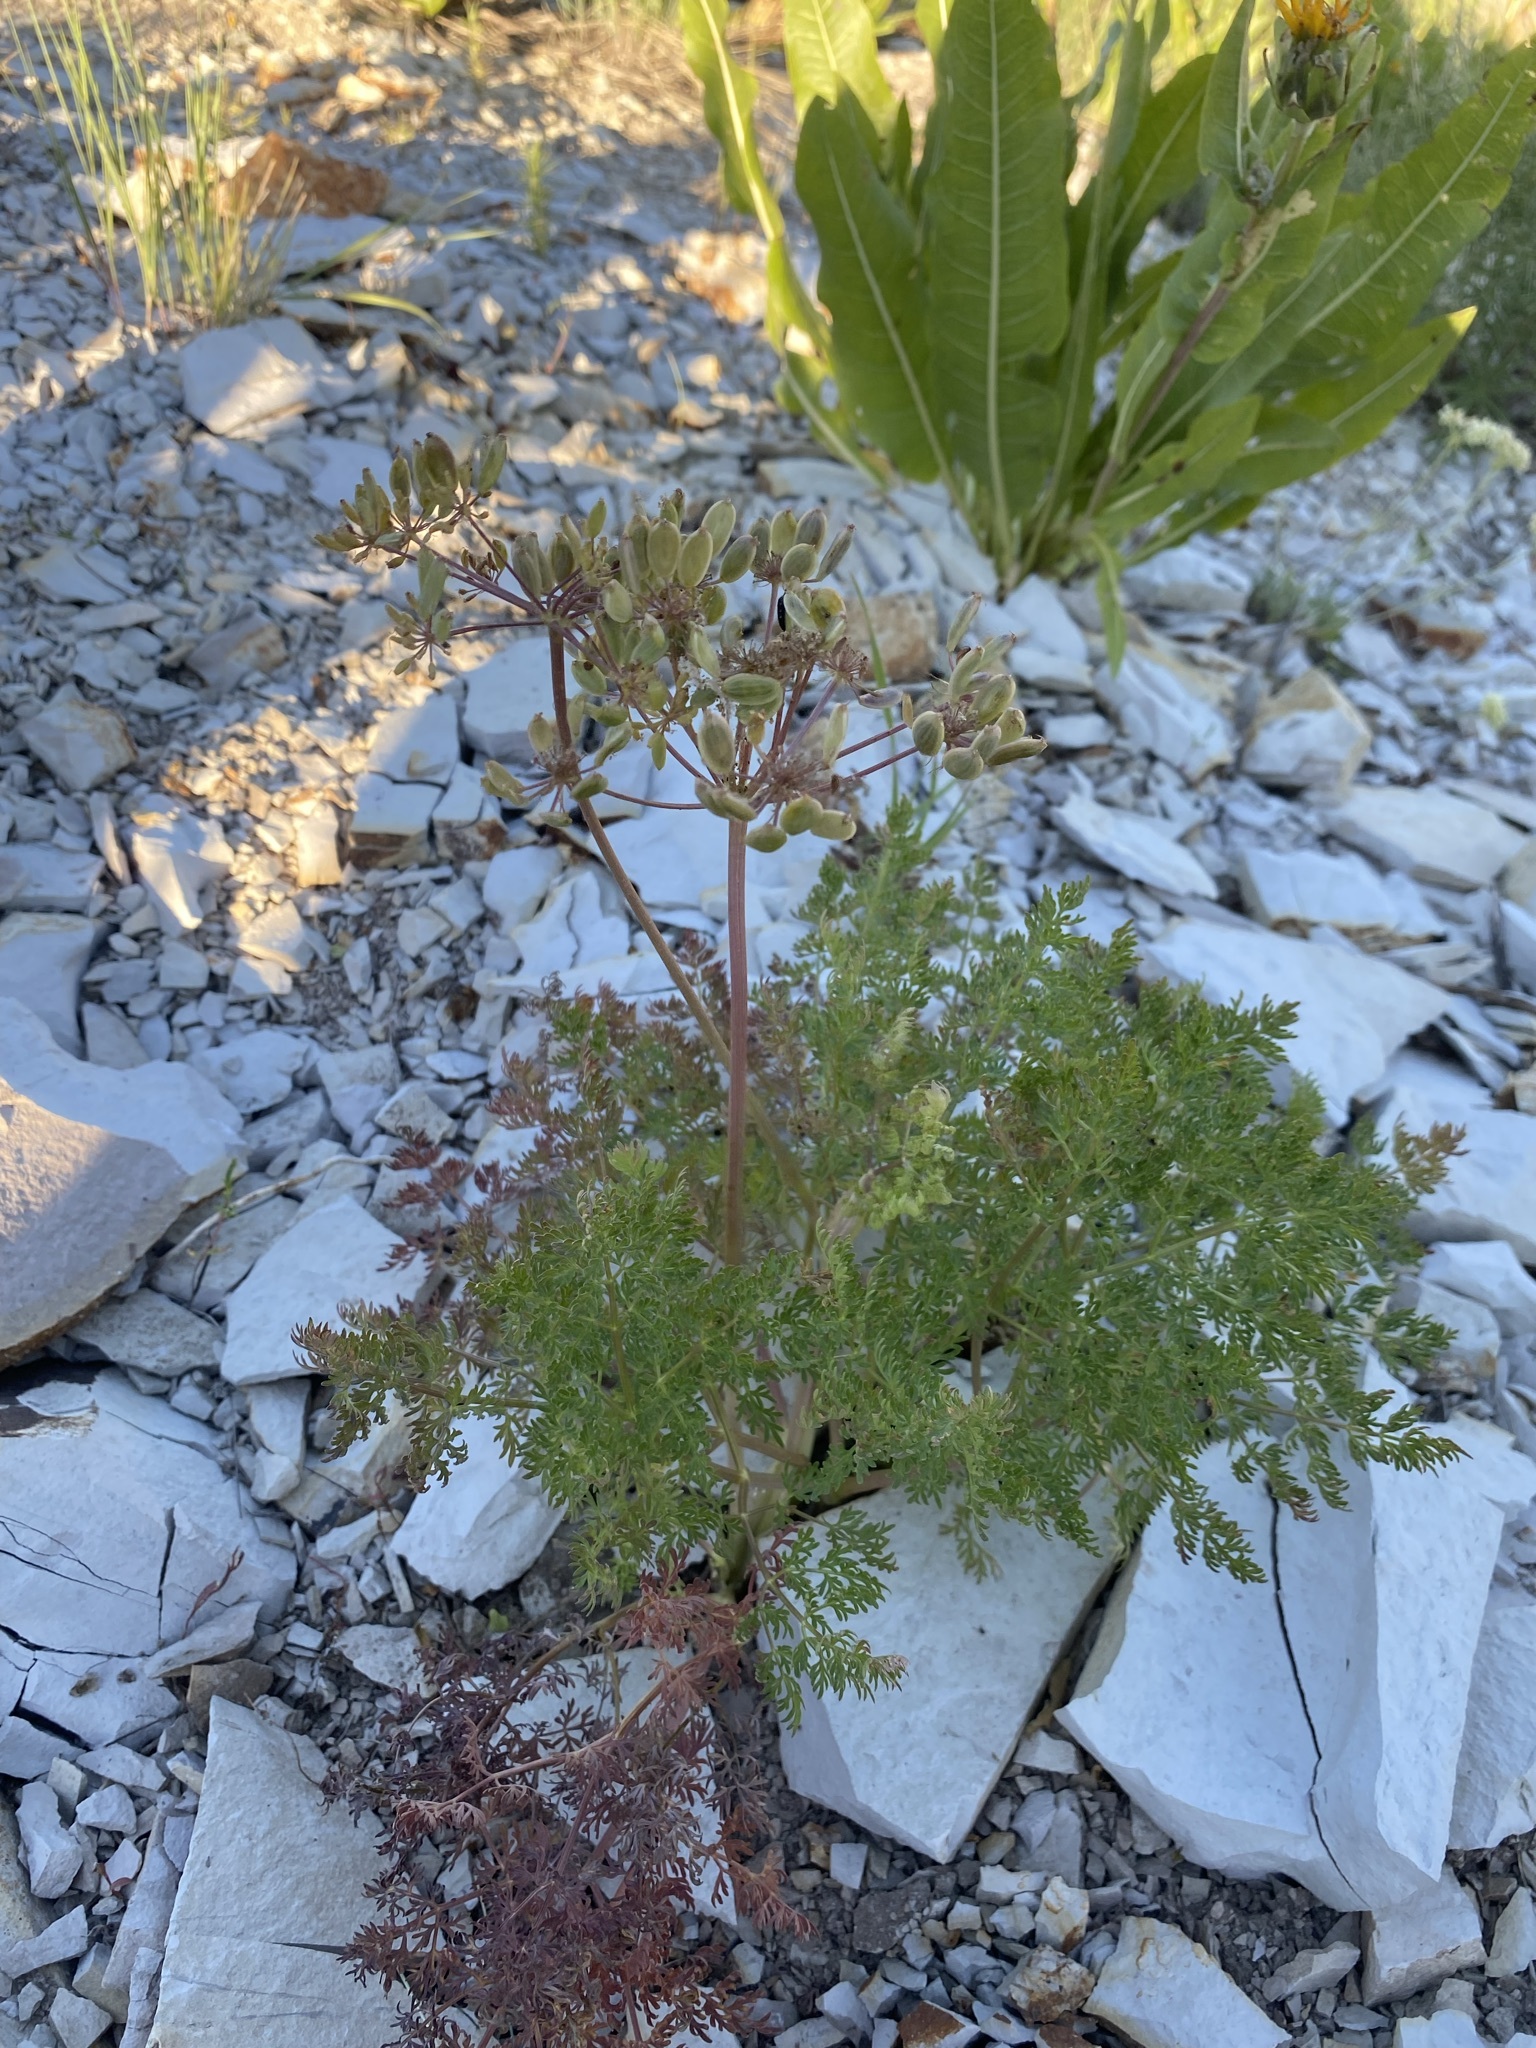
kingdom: Plantae
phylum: Tracheophyta
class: Magnoliopsida
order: Apiales
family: Apiaceae
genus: Lomatium
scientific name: Lomatium multifidum
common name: Carrot-leaved biscuitroot
